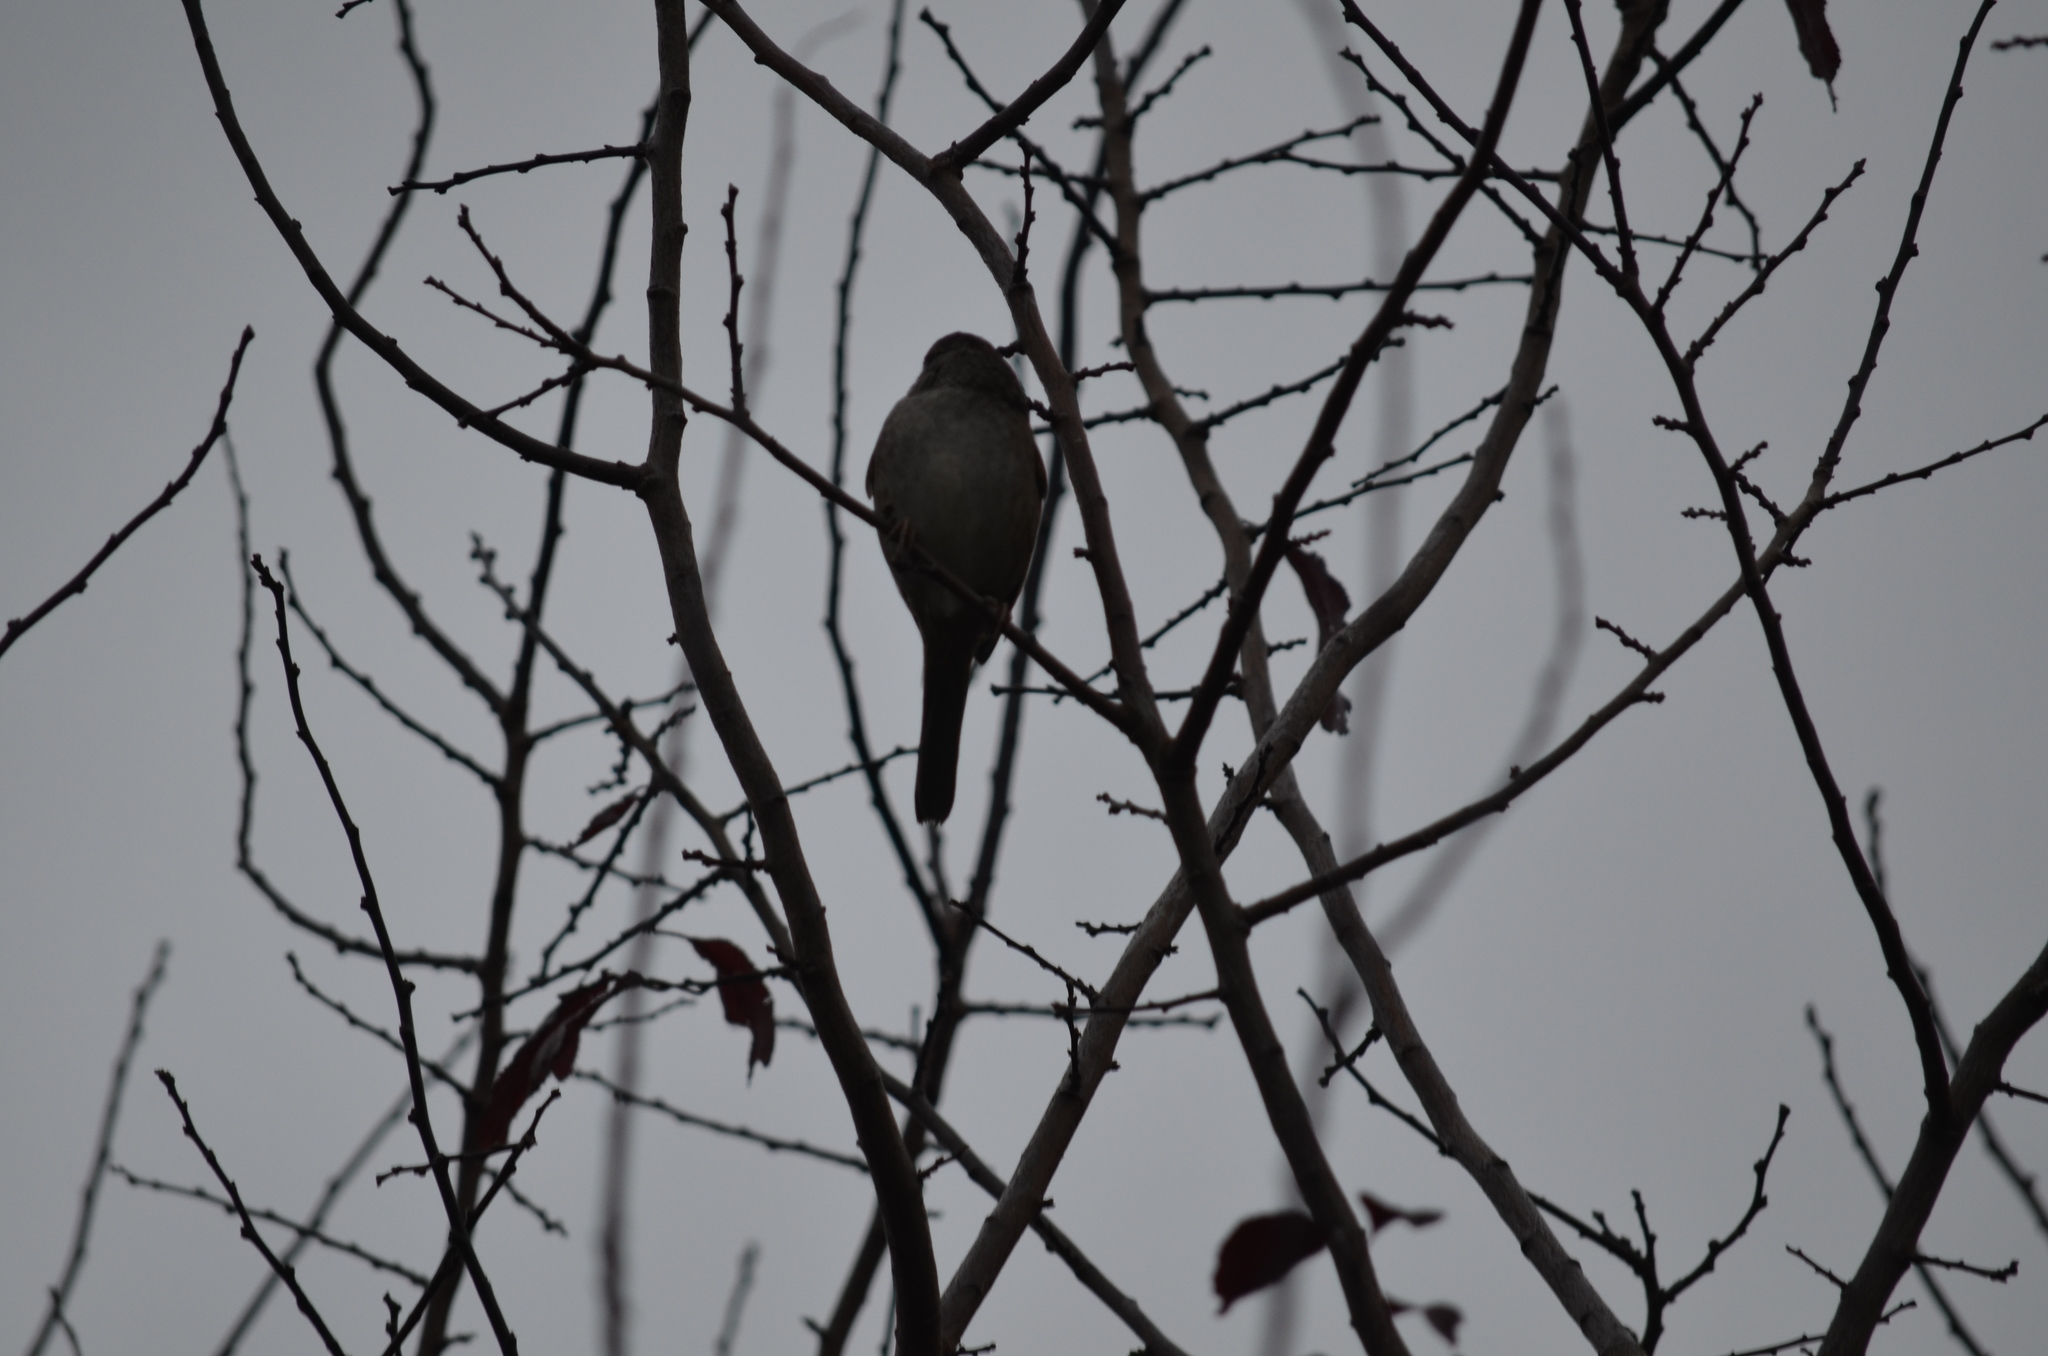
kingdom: Animalia
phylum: Chordata
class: Aves
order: Passeriformes
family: Passerellidae
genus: Zonotrichia
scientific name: Zonotrichia atricapilla
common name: Golden-crowned sparrow
